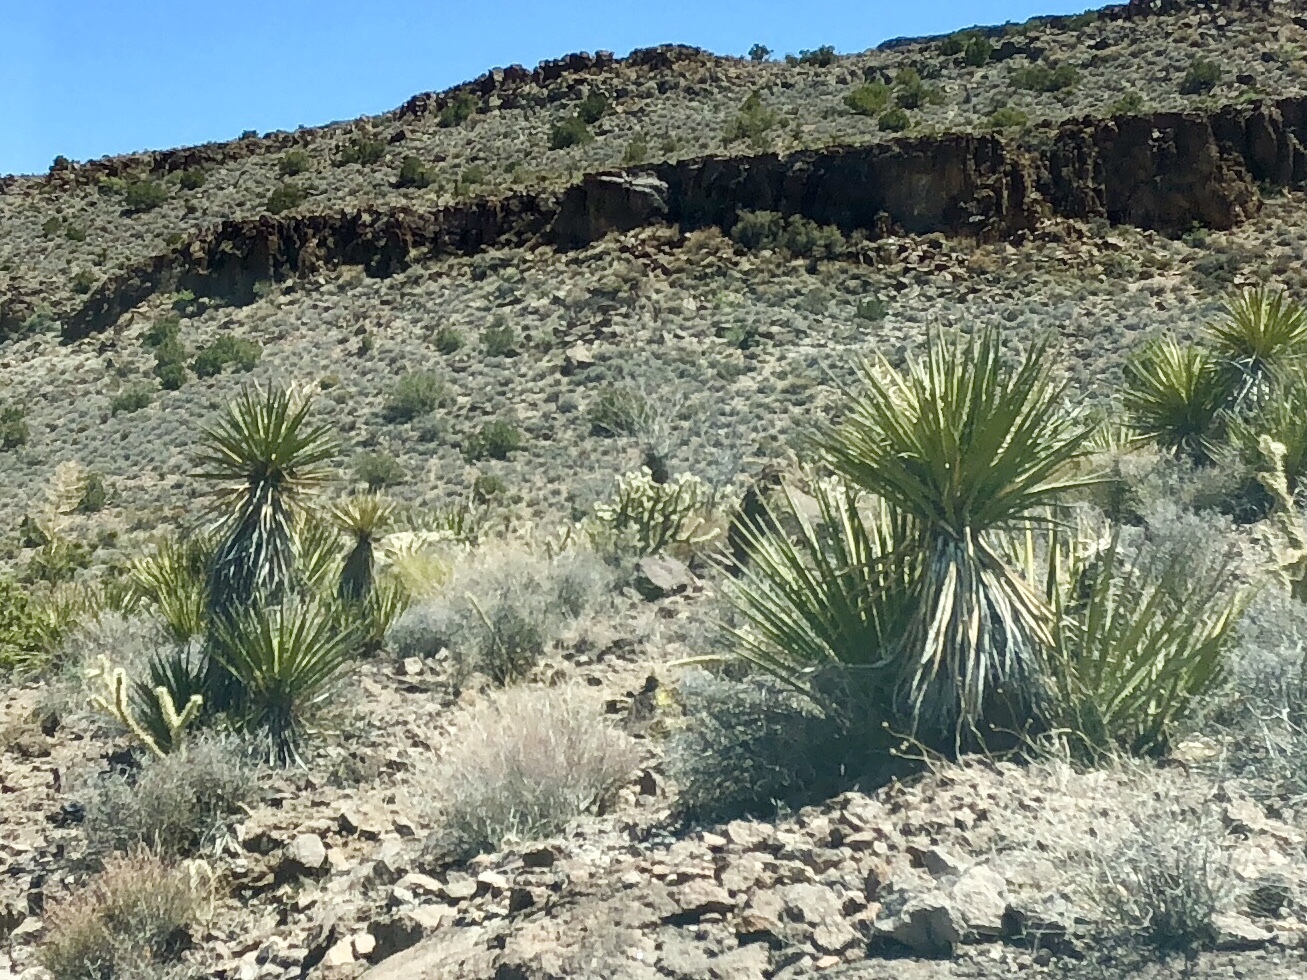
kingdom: Plantae
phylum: Tracheophyta
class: Liliopsida
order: Asparagales
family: Asparagaceae
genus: Yucca
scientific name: Yucca schidigera
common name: Mojave yucca
